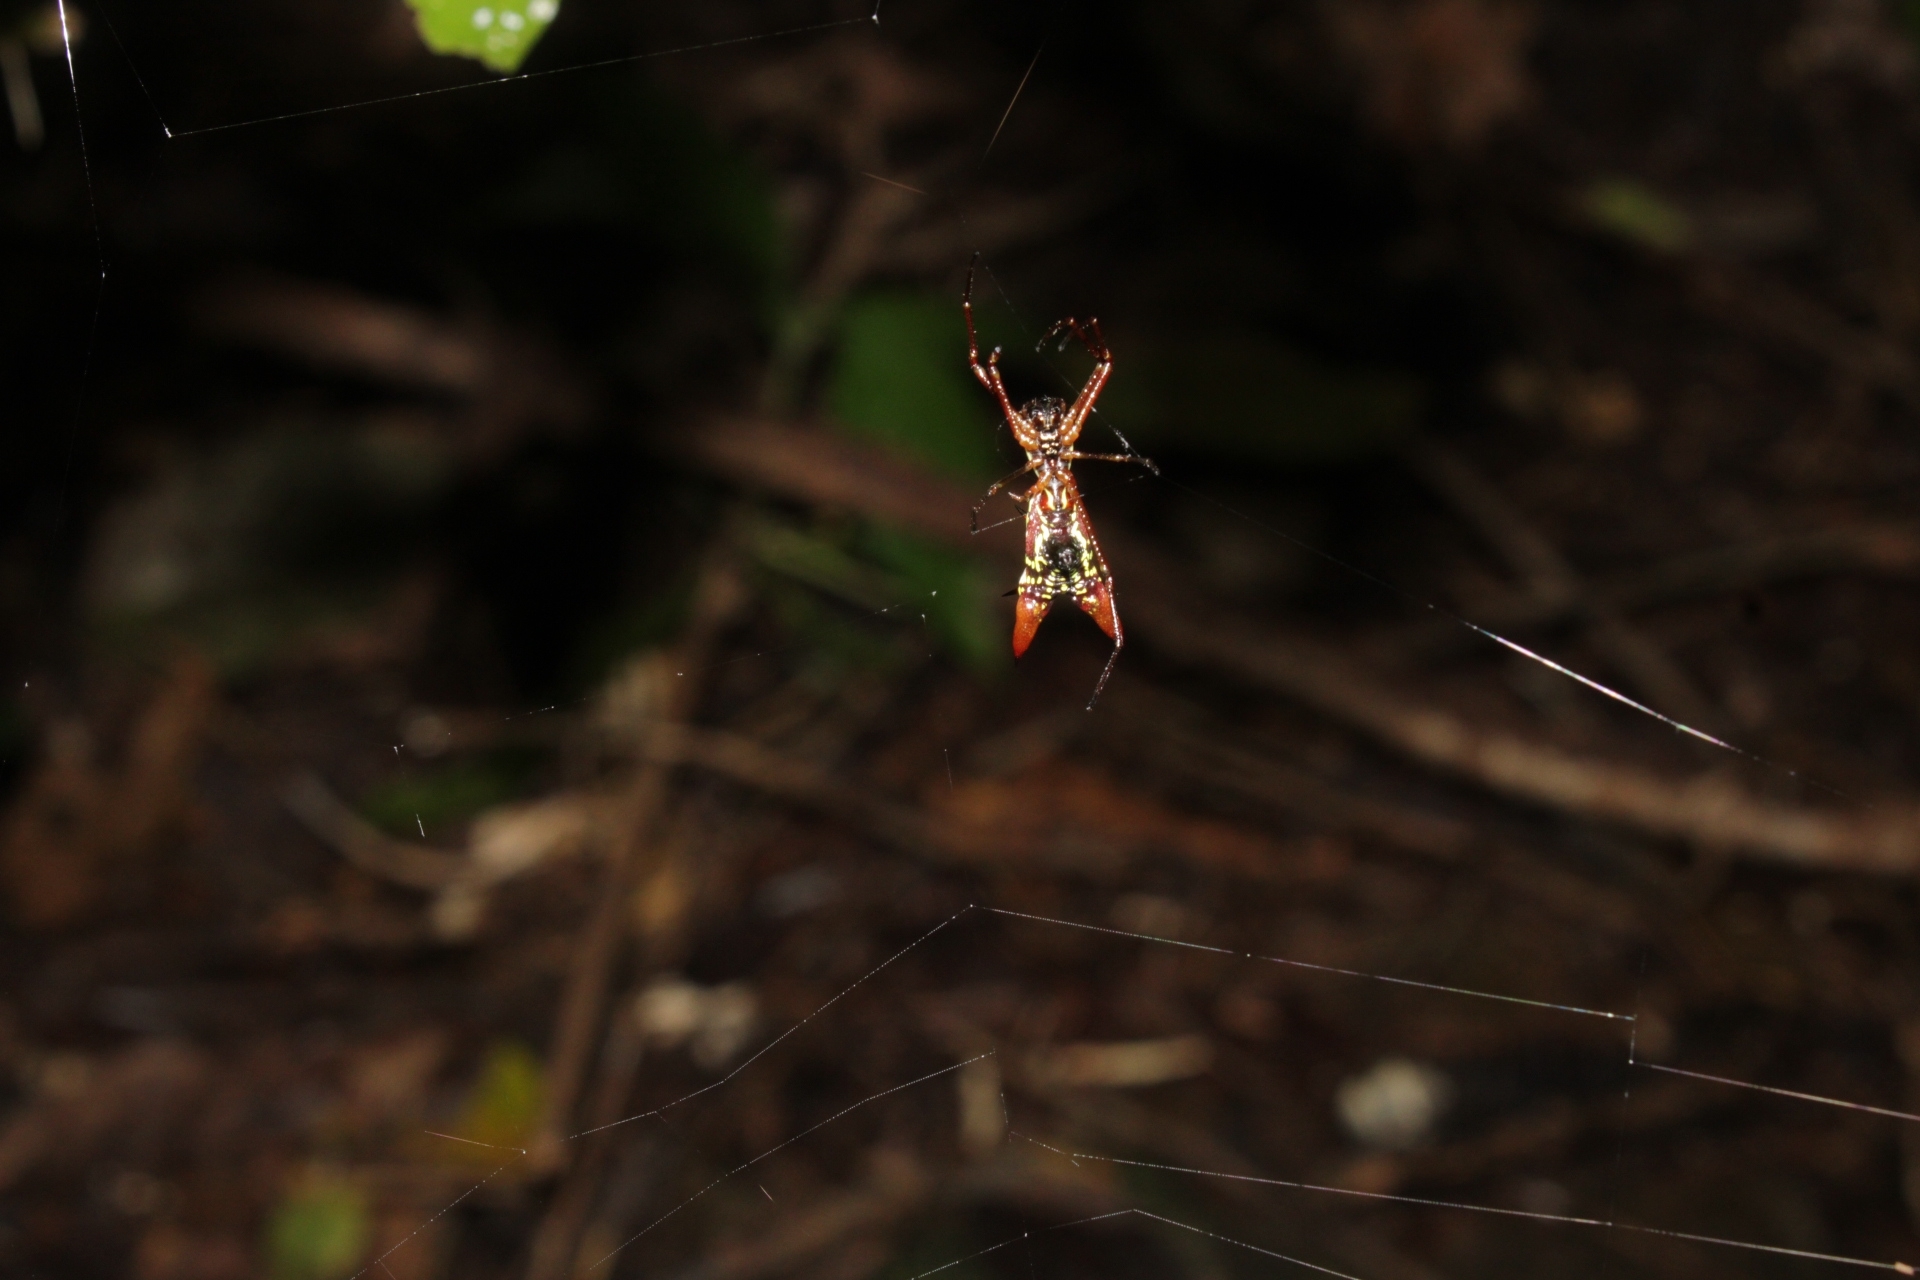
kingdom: Animalia
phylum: Arthropoda
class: Arachnida
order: Araneae
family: Araneidae
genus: Micrathena
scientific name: Micrathena sexspinosa
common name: Orb weavers
